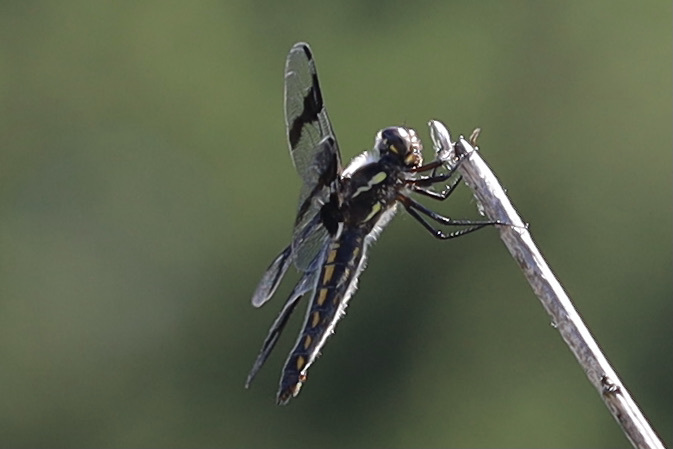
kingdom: Animalia
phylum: Arthropoda
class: Insecta
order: Odonata
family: Libellulidae
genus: Libellula
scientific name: Libellula forensis
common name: Eight-spotted skimmer
